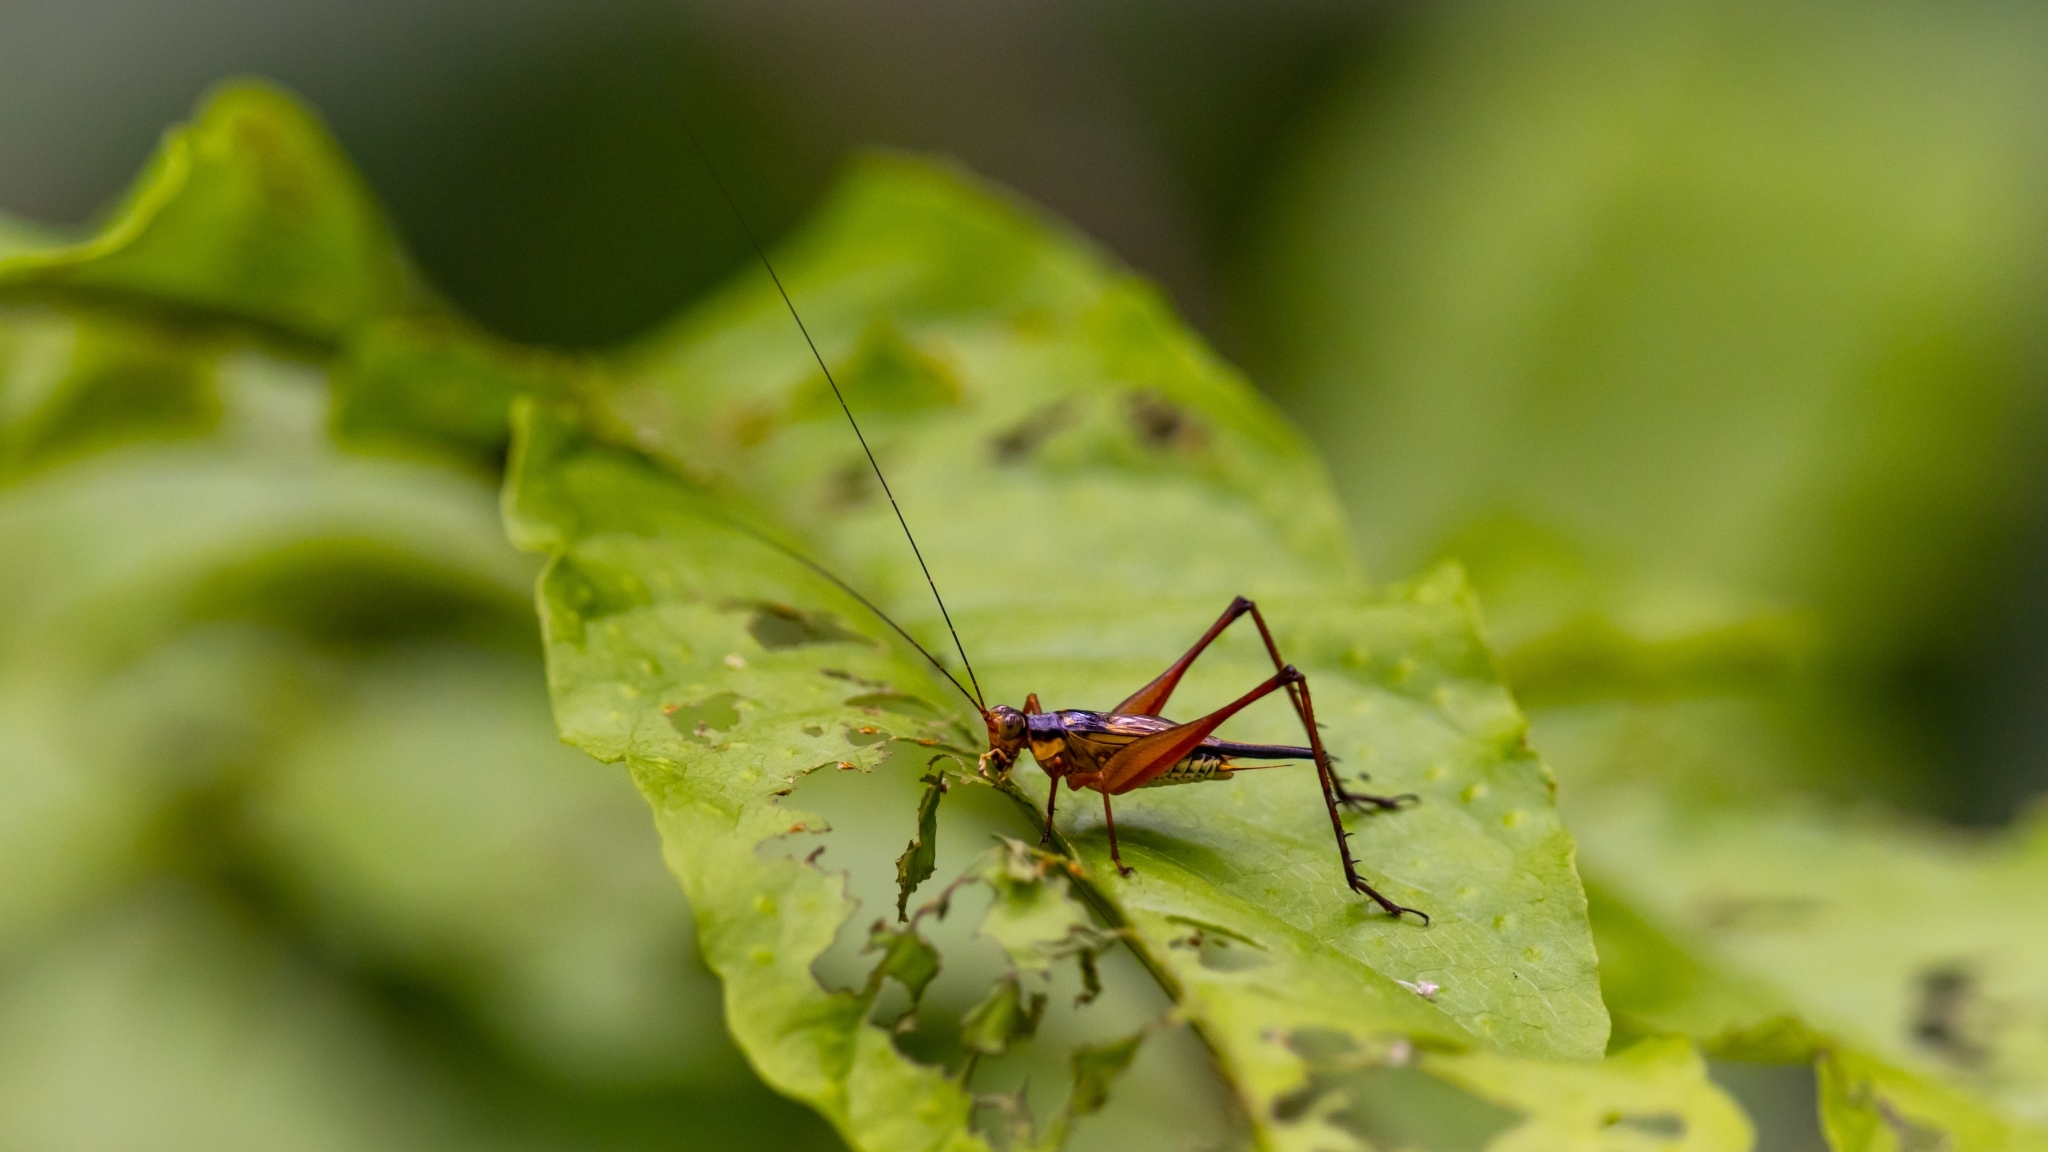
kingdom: Animalia
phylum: Arthropoda
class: Insecta
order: Orthoptera
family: Gryllidae
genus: Nisitrus
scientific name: Nisitrus malaya
